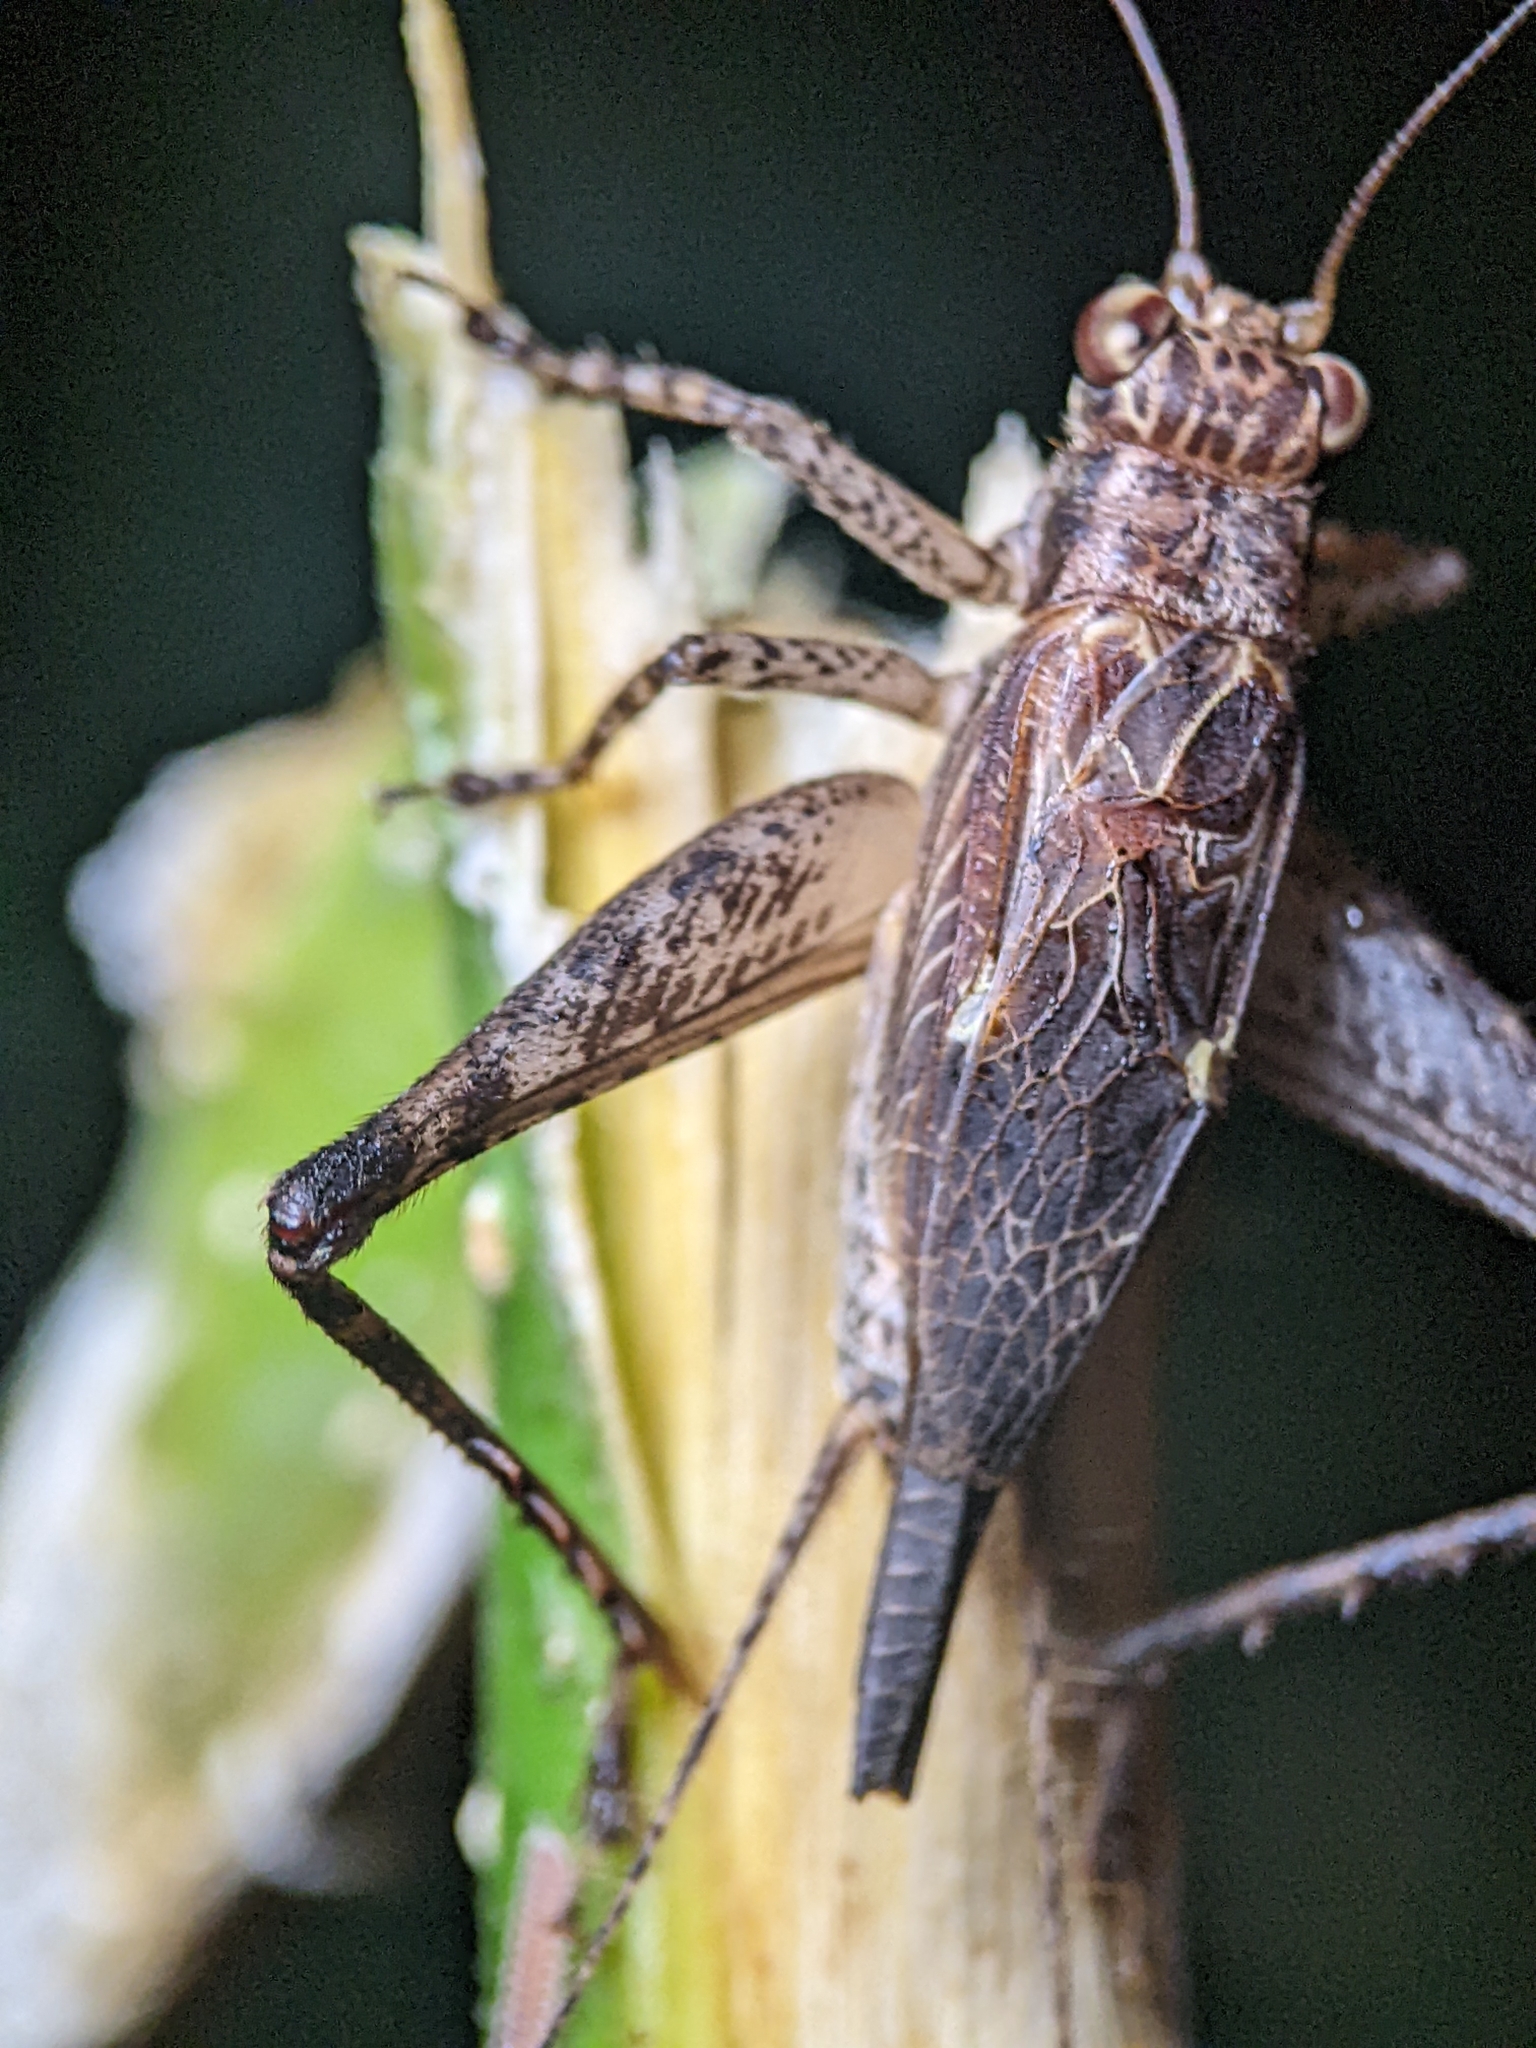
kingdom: Animalia
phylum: Arthropoda
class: Insecta
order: Orthoptera
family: Gryllidae
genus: Cardiodactylus
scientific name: Cardiodactylus singapura
